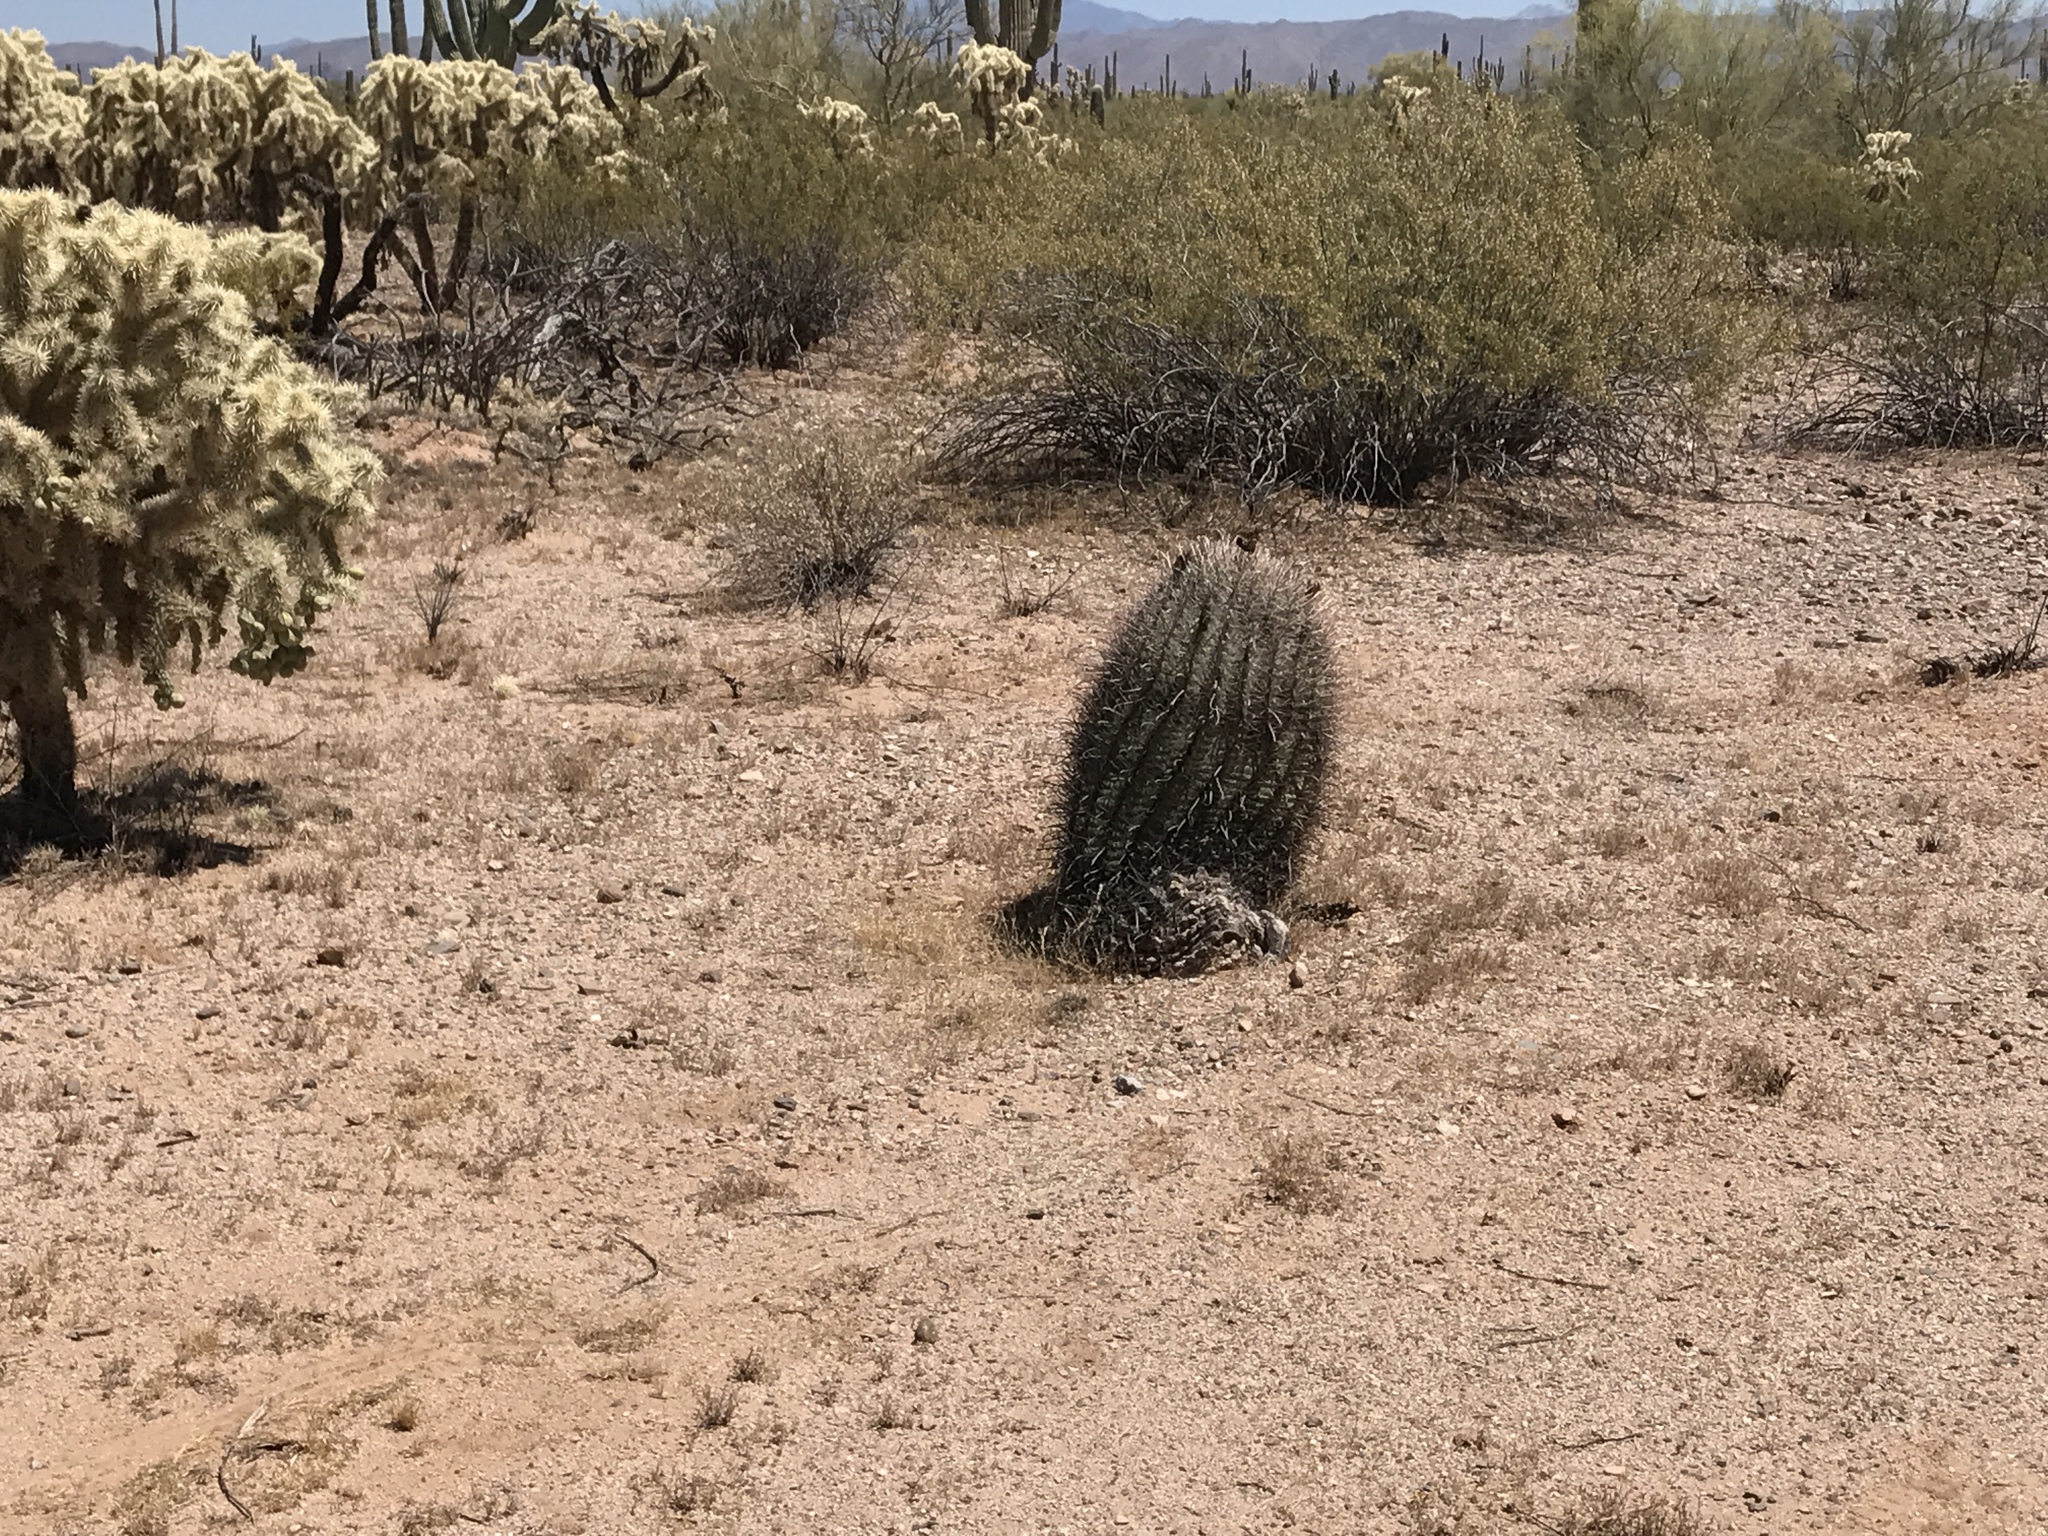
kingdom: Plantae
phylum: Tracheophyta
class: Magnoliopsida
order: Caryophyllales
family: Cactaceae
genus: Ferocactus
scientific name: Ferocactus wislizeni
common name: Candy barrel cactus
